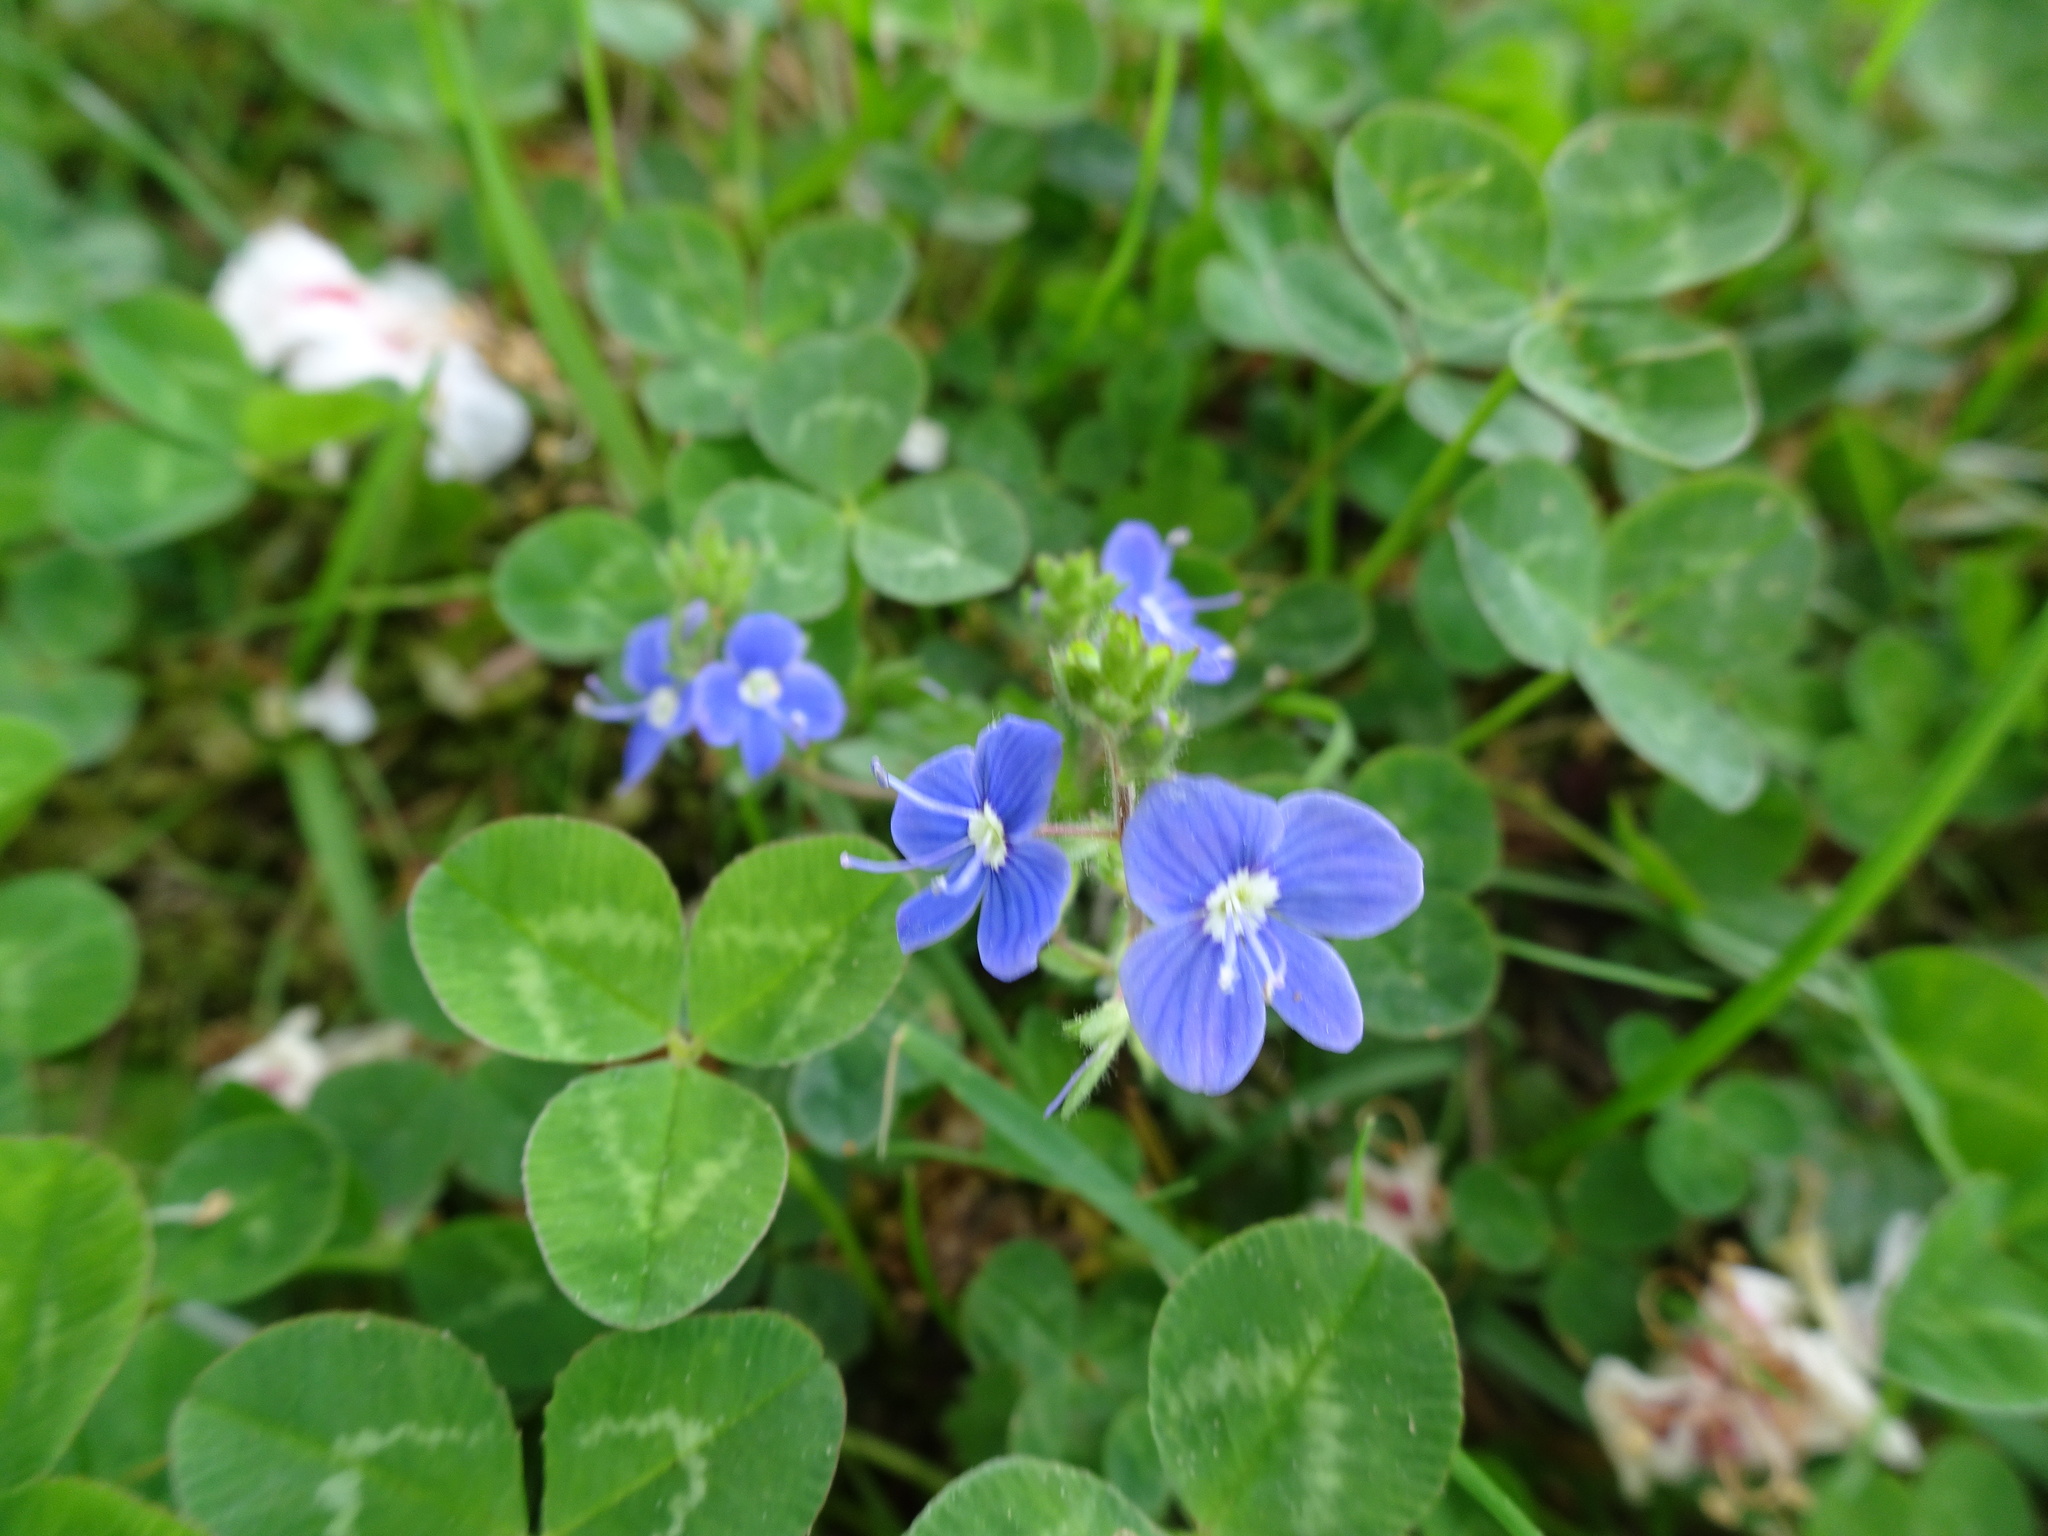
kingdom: Plantae
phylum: Tracheophyta
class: Magnoliopsida
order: Lamiales
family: Plantaginaceae
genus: Veronica
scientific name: Veronica chamaedrys
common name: Germander speedwell
